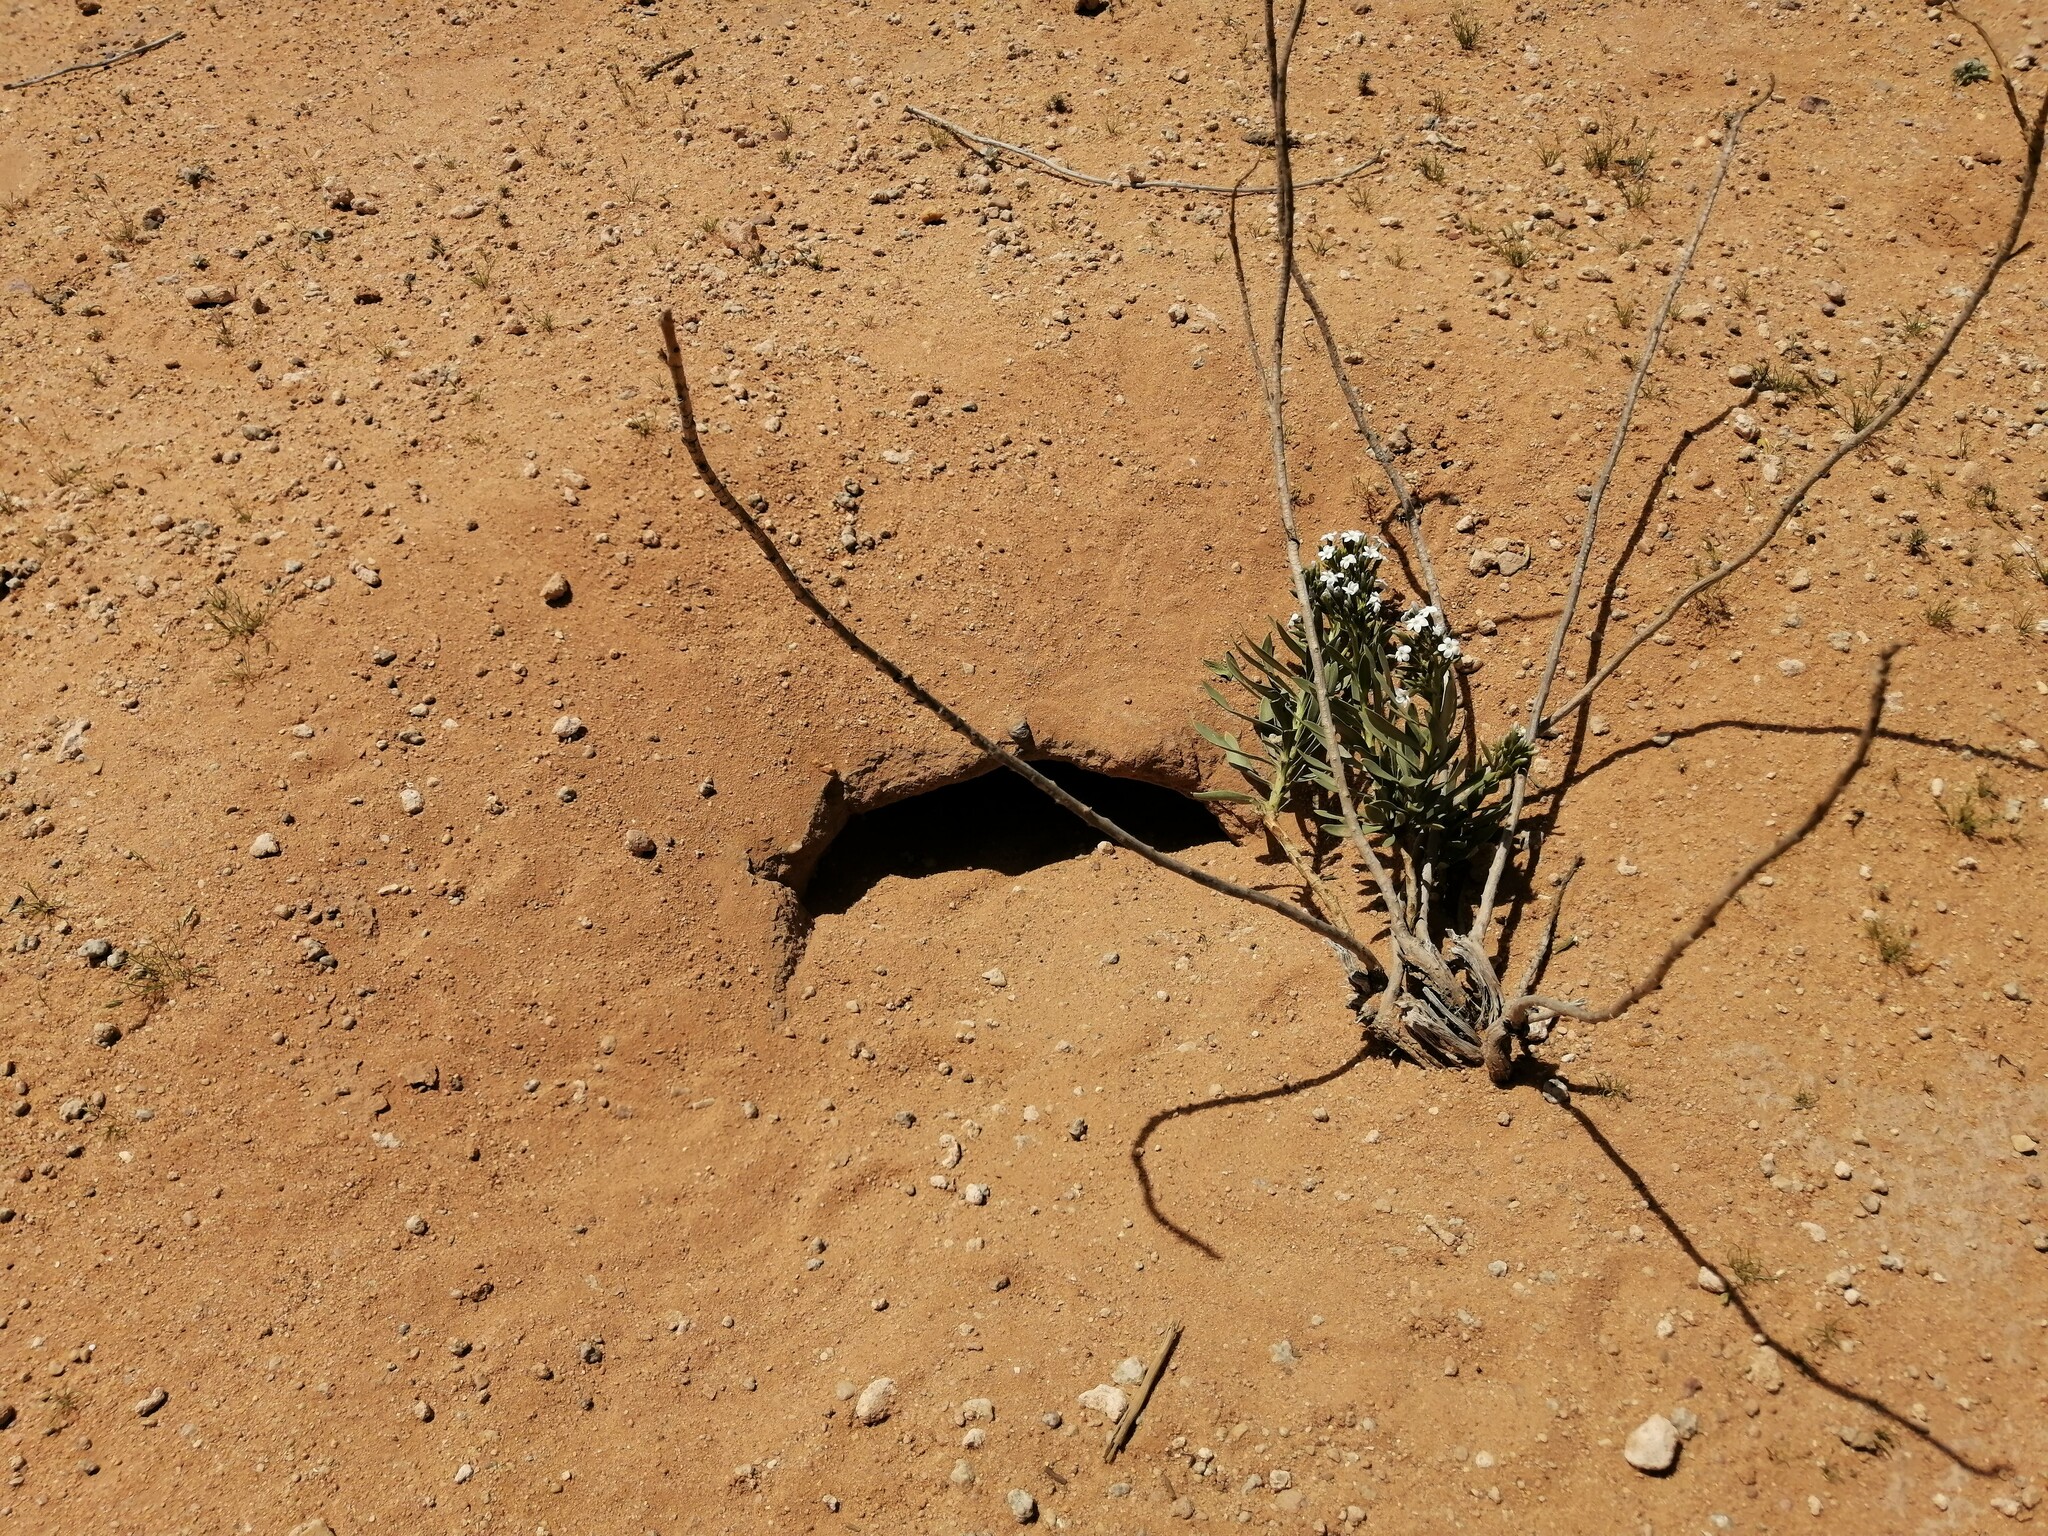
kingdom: Animalia
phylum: Chordata
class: Squamata
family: Agamidae
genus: Uromastyx
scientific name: Uromastyx aegyptia
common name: Egyptian mastigure
